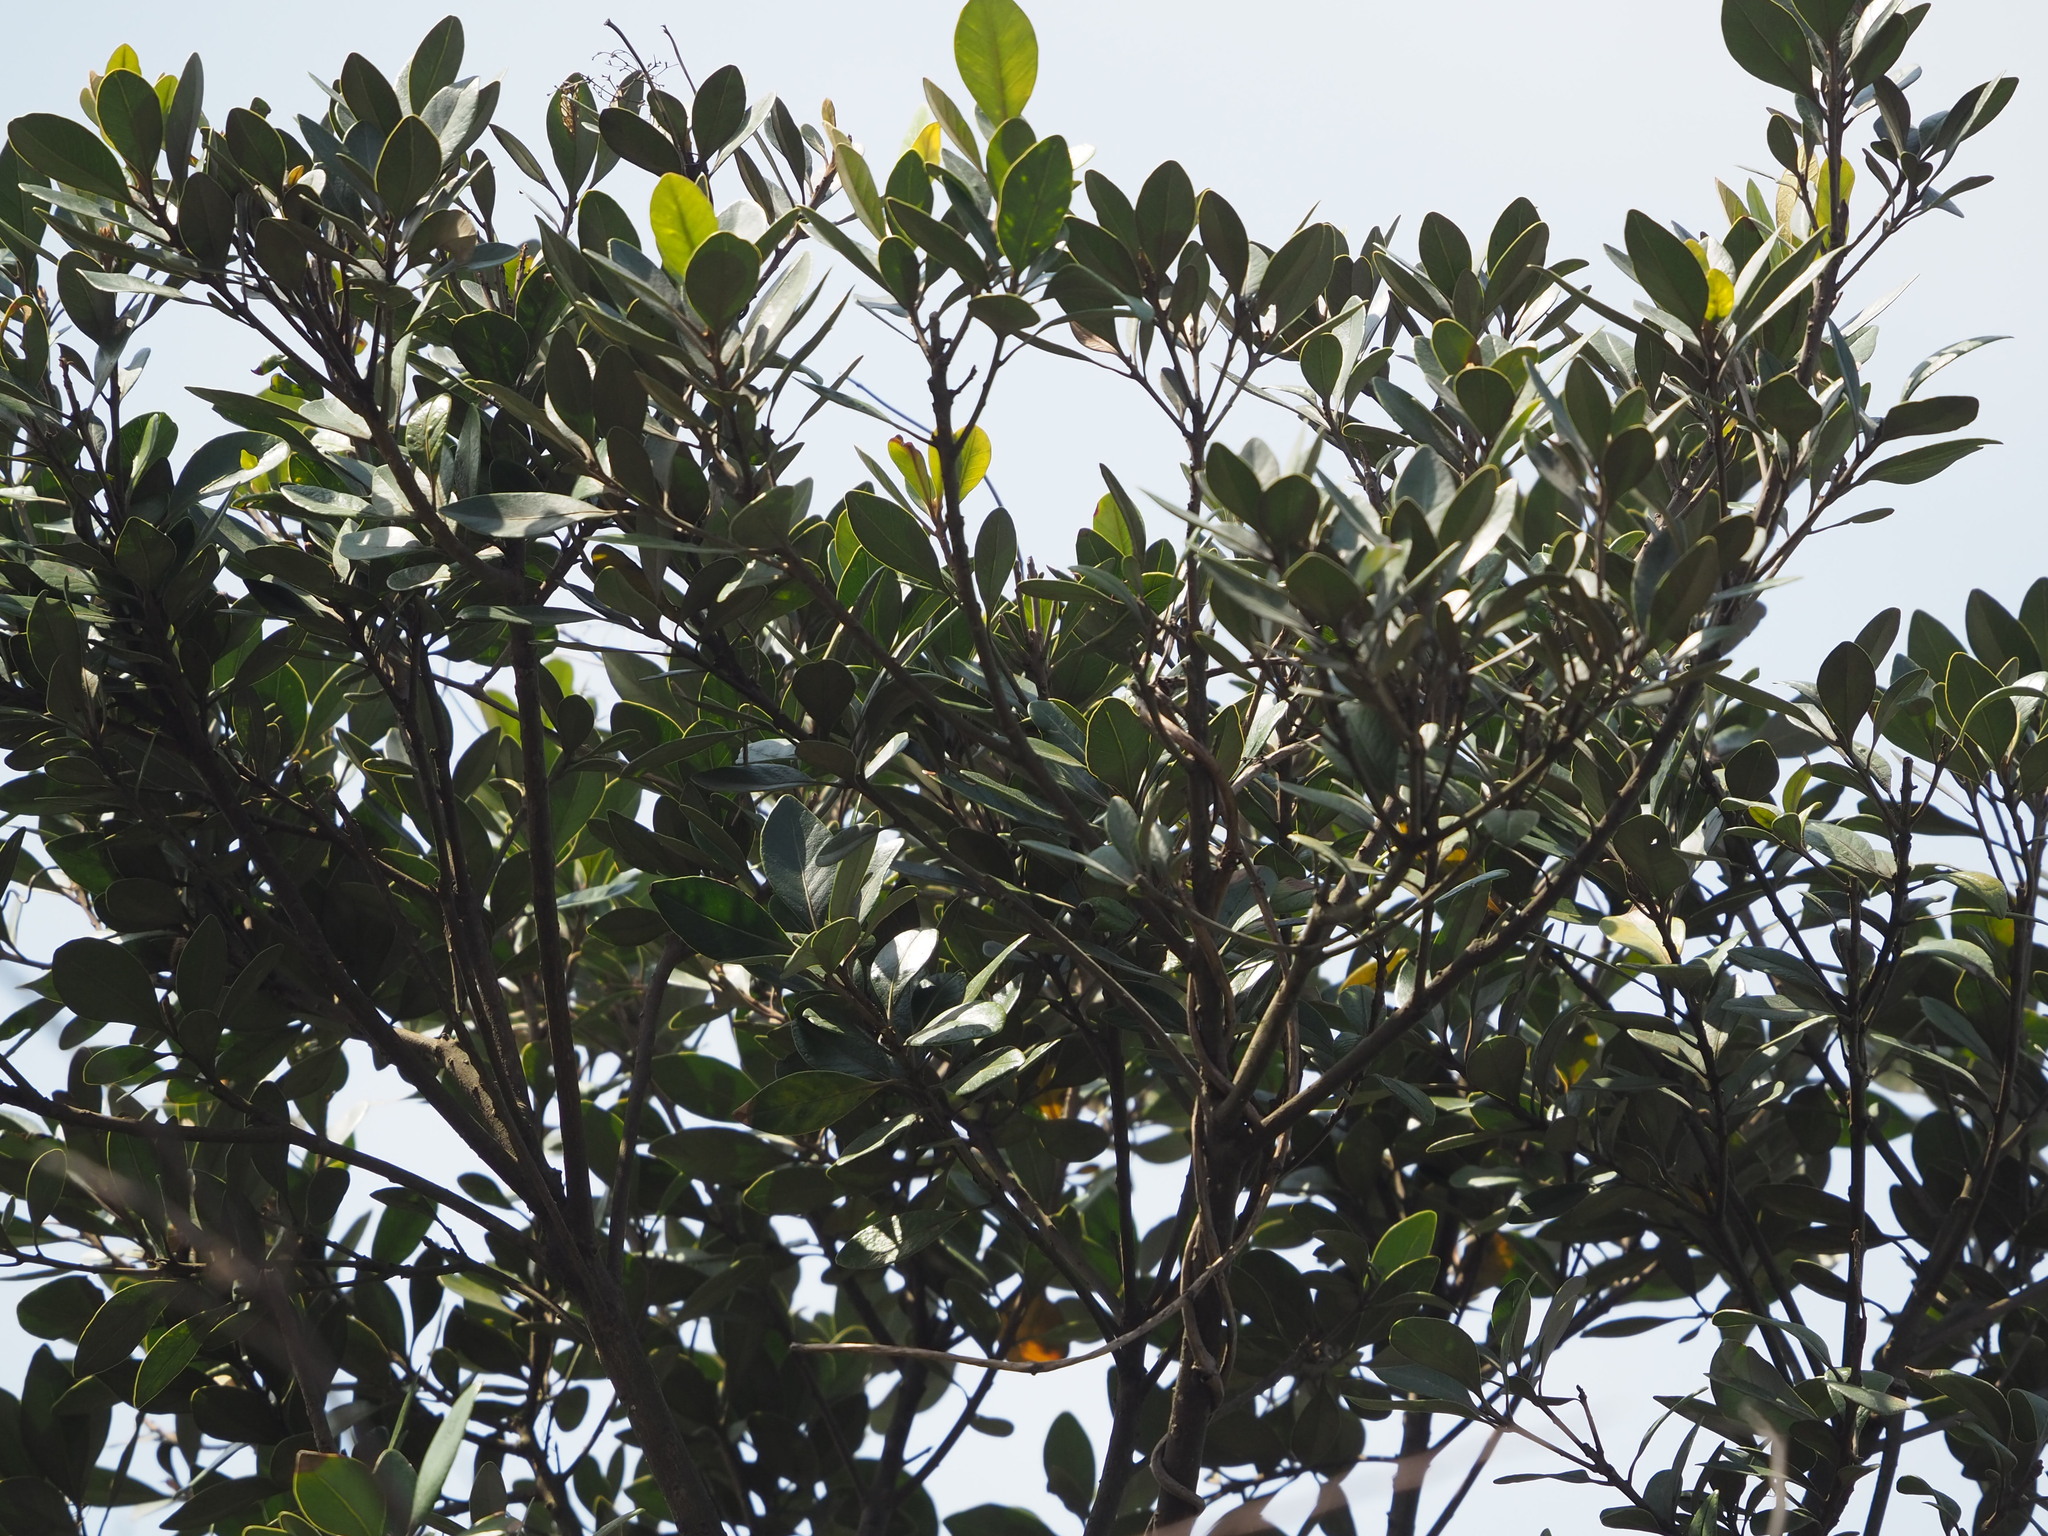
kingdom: Plantae
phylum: Tracheophyta
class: Magnoliopsida
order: Ericales
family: Sapotaceae
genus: Planchonella
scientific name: Planchonella obovata
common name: Black-ash
